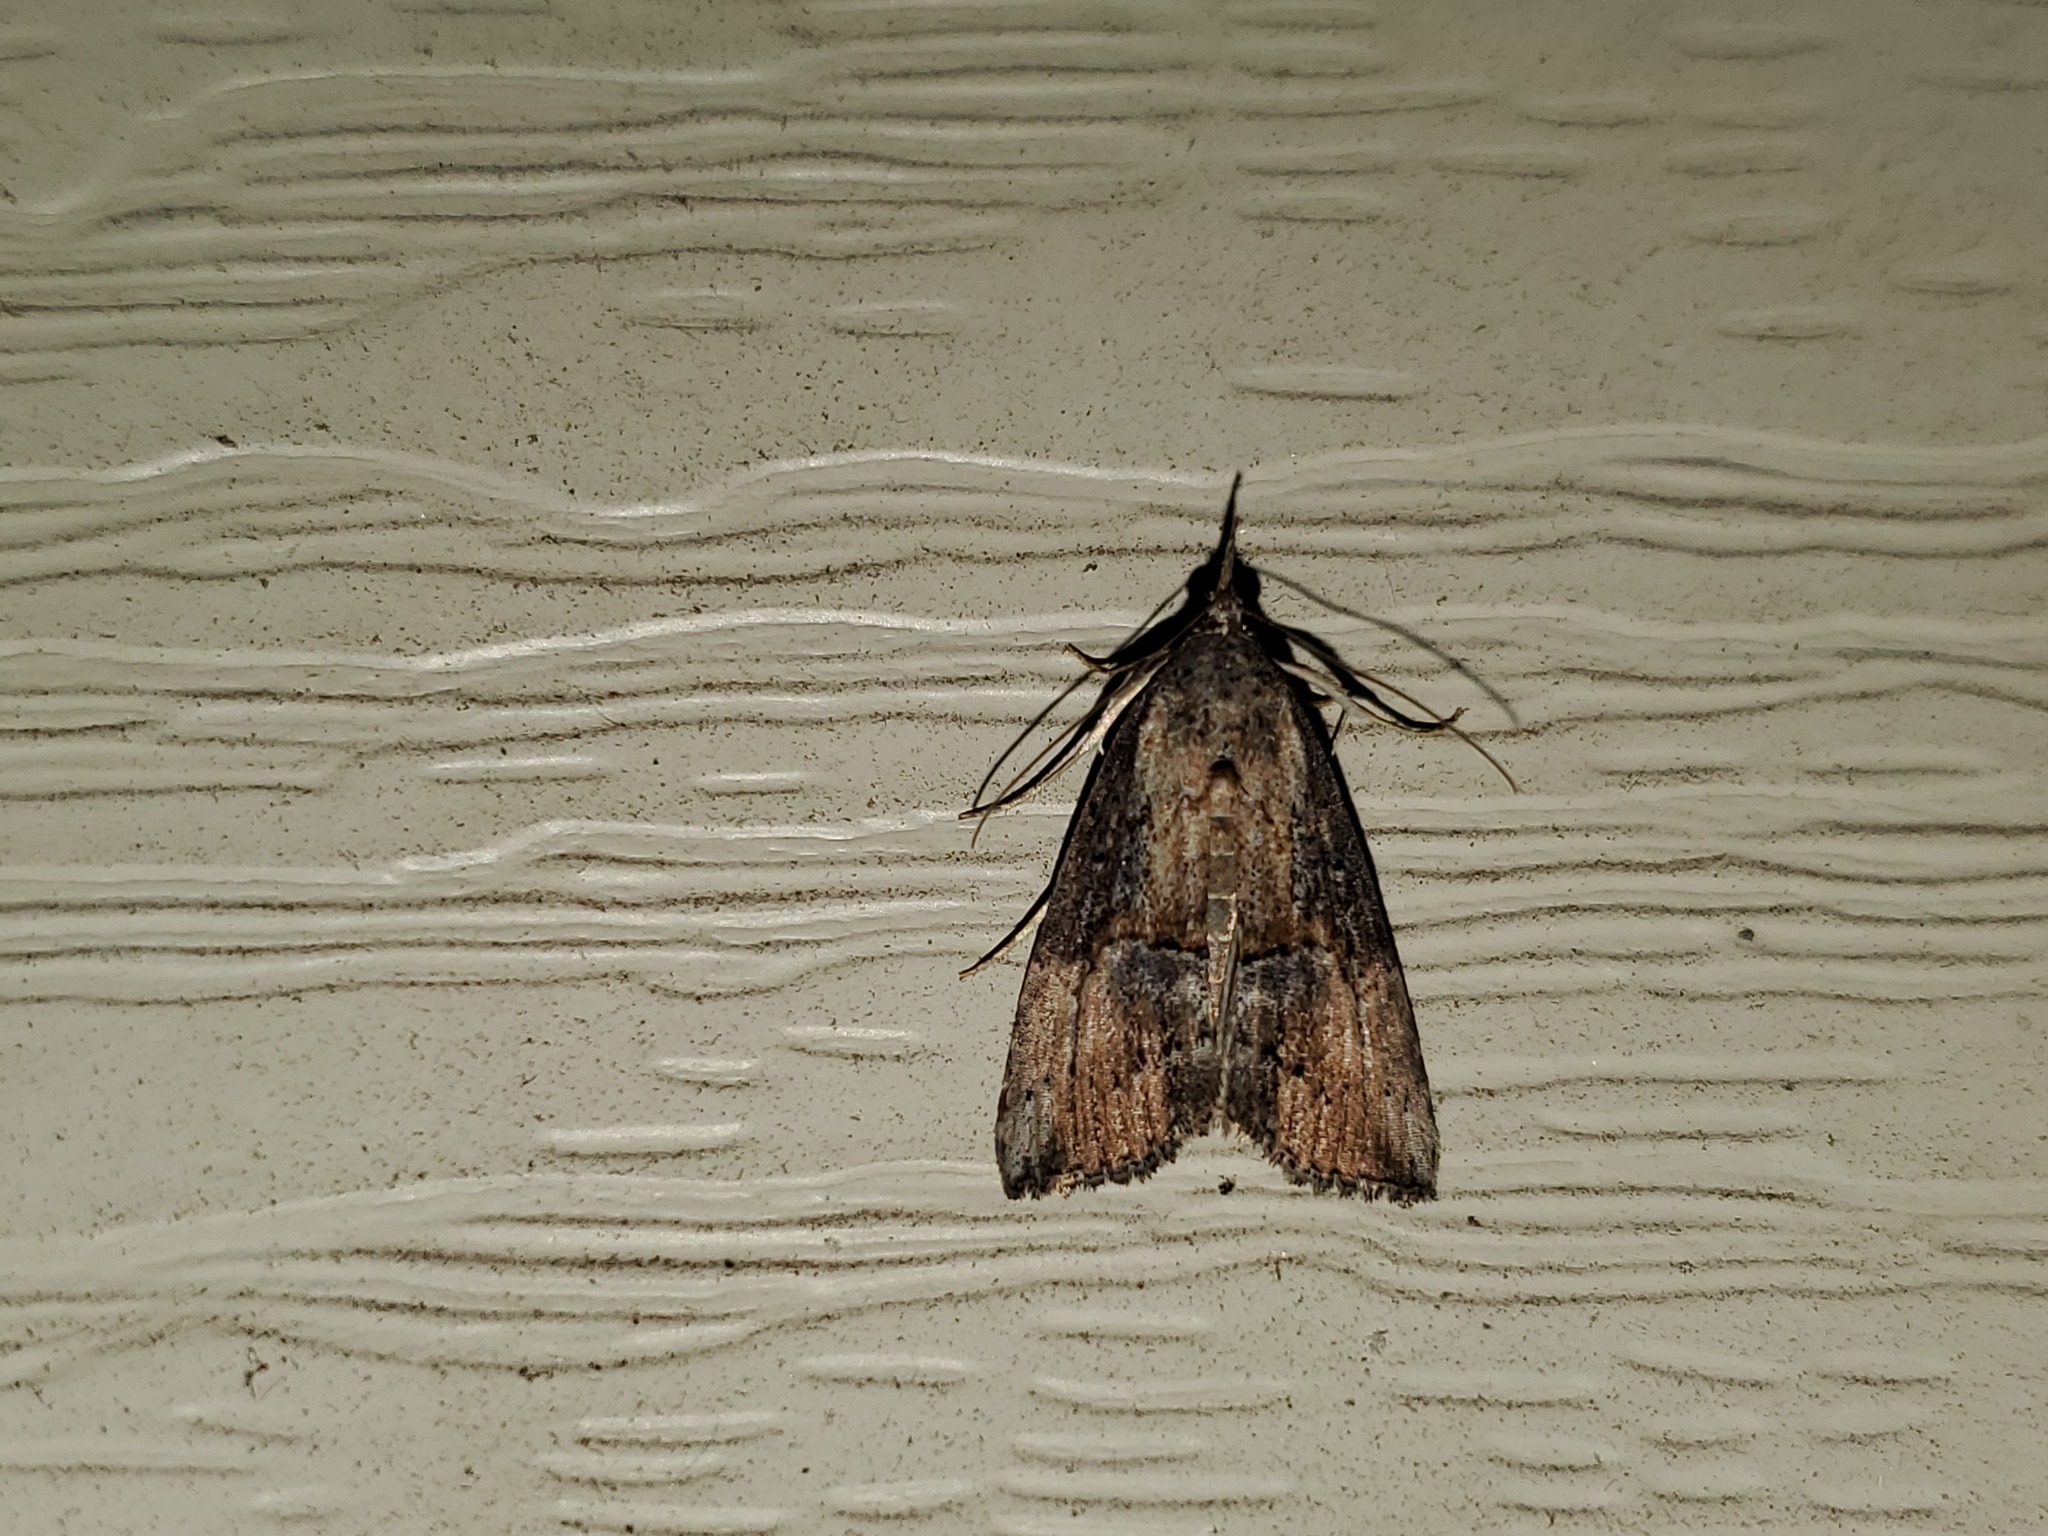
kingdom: Animalia
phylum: Arthropoda
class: Insecta
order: Lepidoptera
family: Erebidae
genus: Hypena
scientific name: Hypena scabra
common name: Green cloverworm
